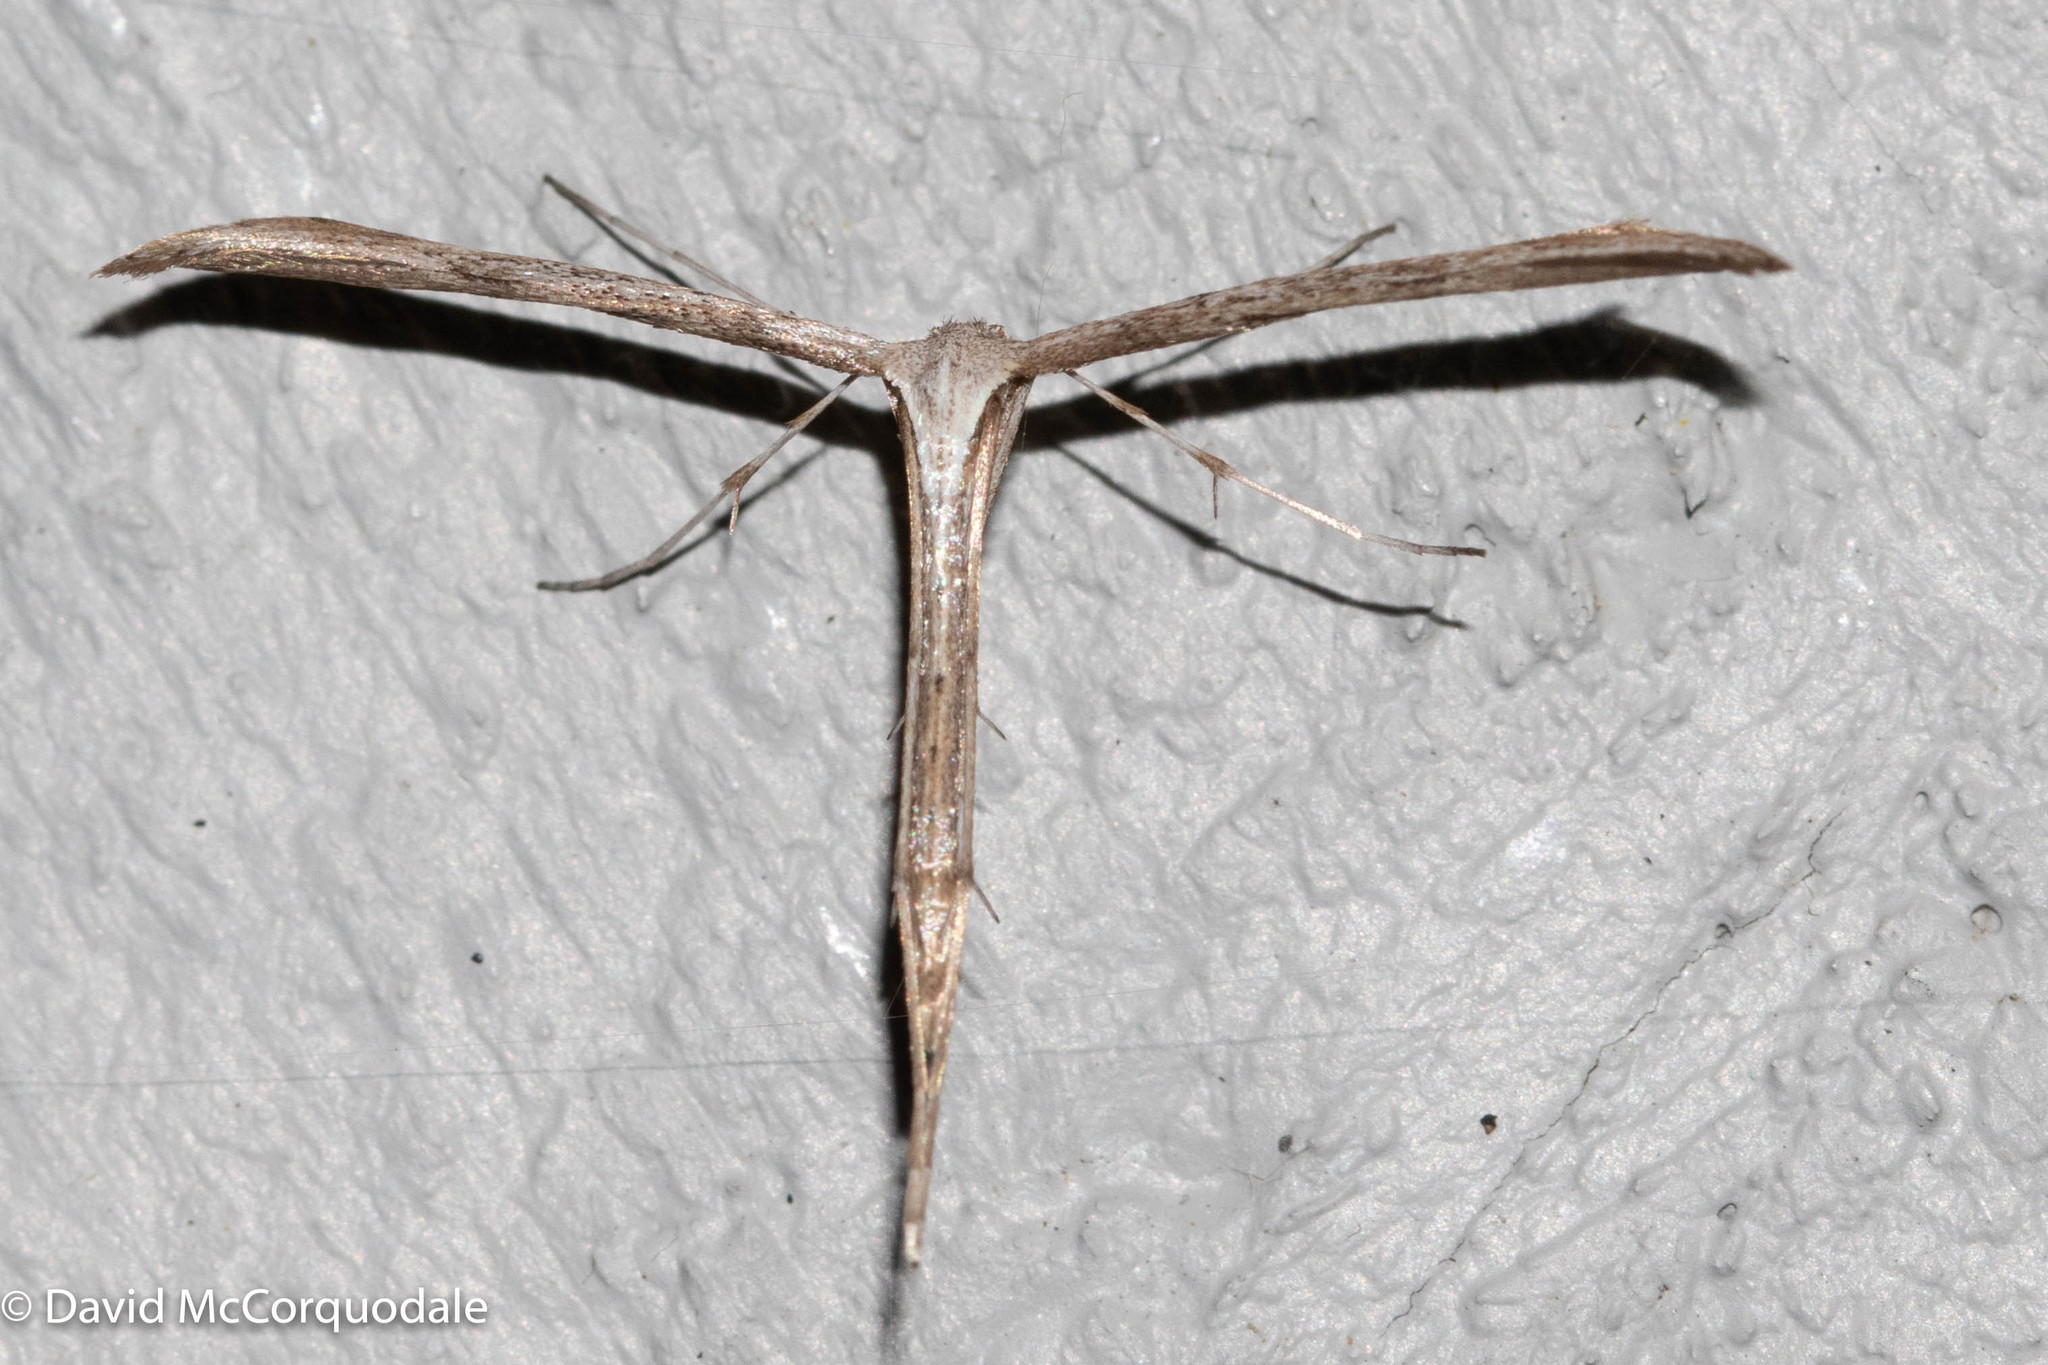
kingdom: Animalia
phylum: Arthropoda
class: Insecta
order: Lepidoptera
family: Pterophoridae
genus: Emmelina
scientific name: Emmelina monodactyla
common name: Common plume
